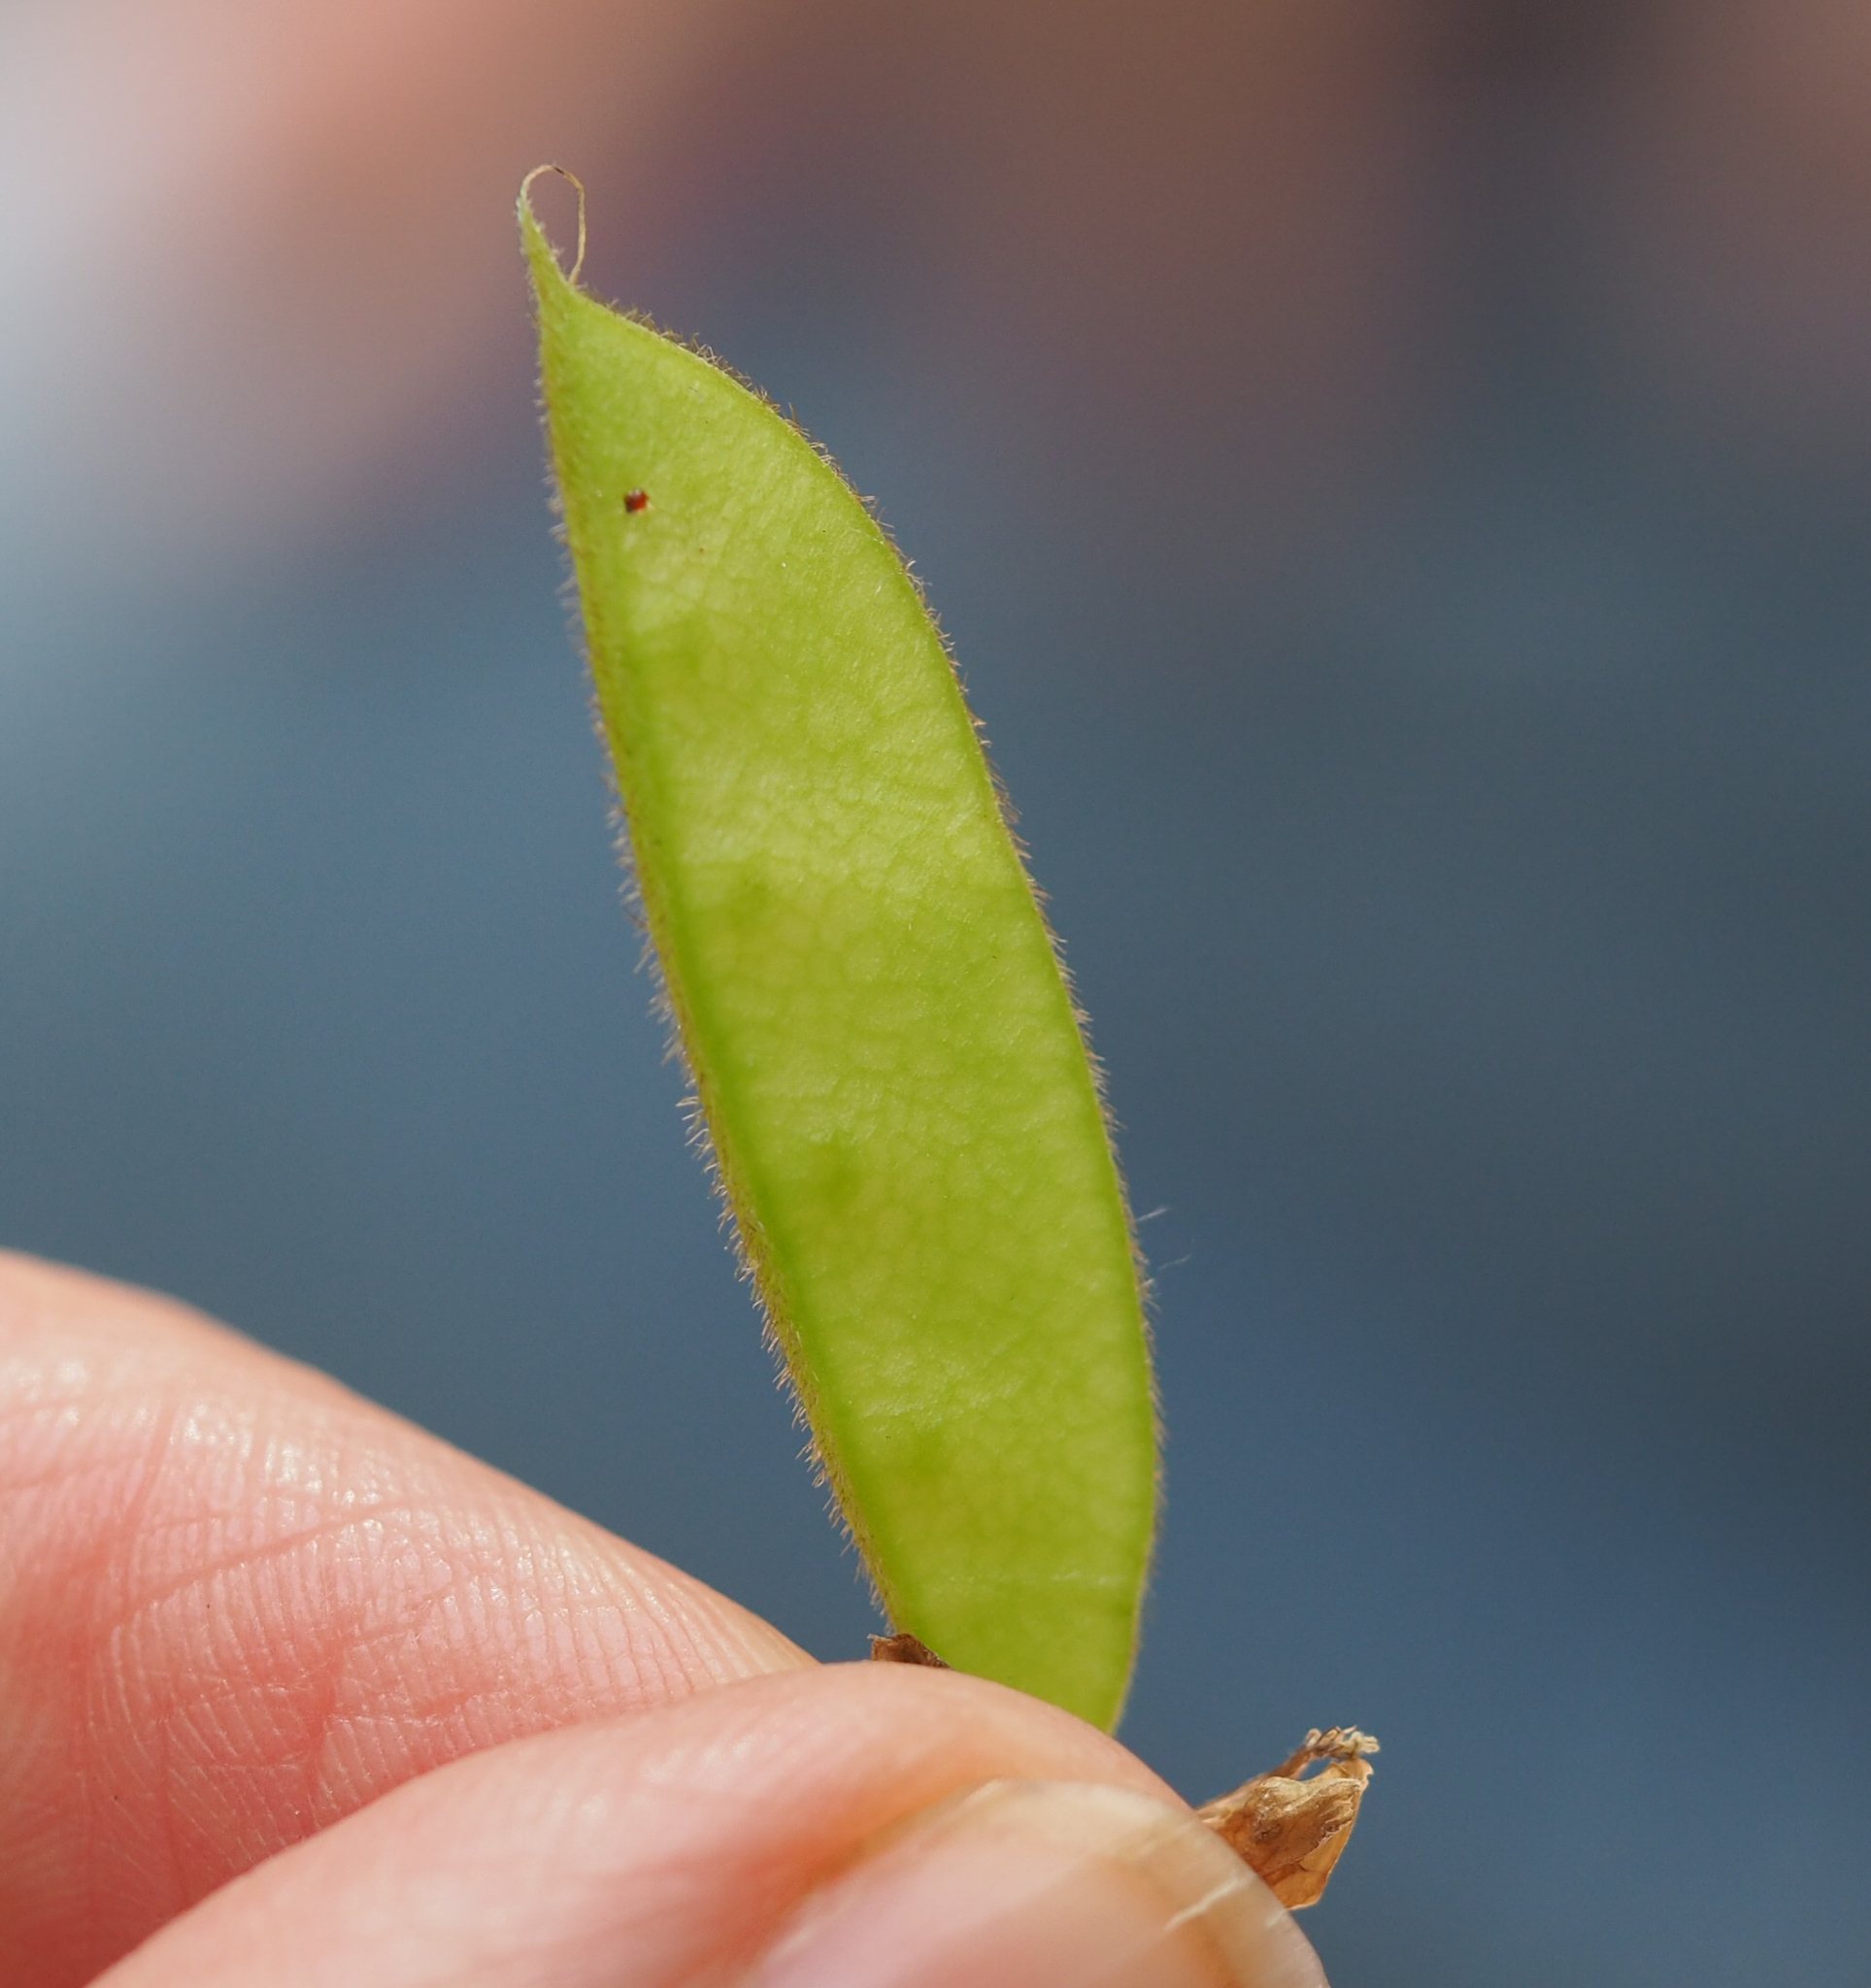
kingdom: Plantae
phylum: Tracheophyta
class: Magnoliopsida
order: Fabales
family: Fabaceae
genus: Amphicarpaea
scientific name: Amphicarpaea bracteata
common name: American hog peanut
